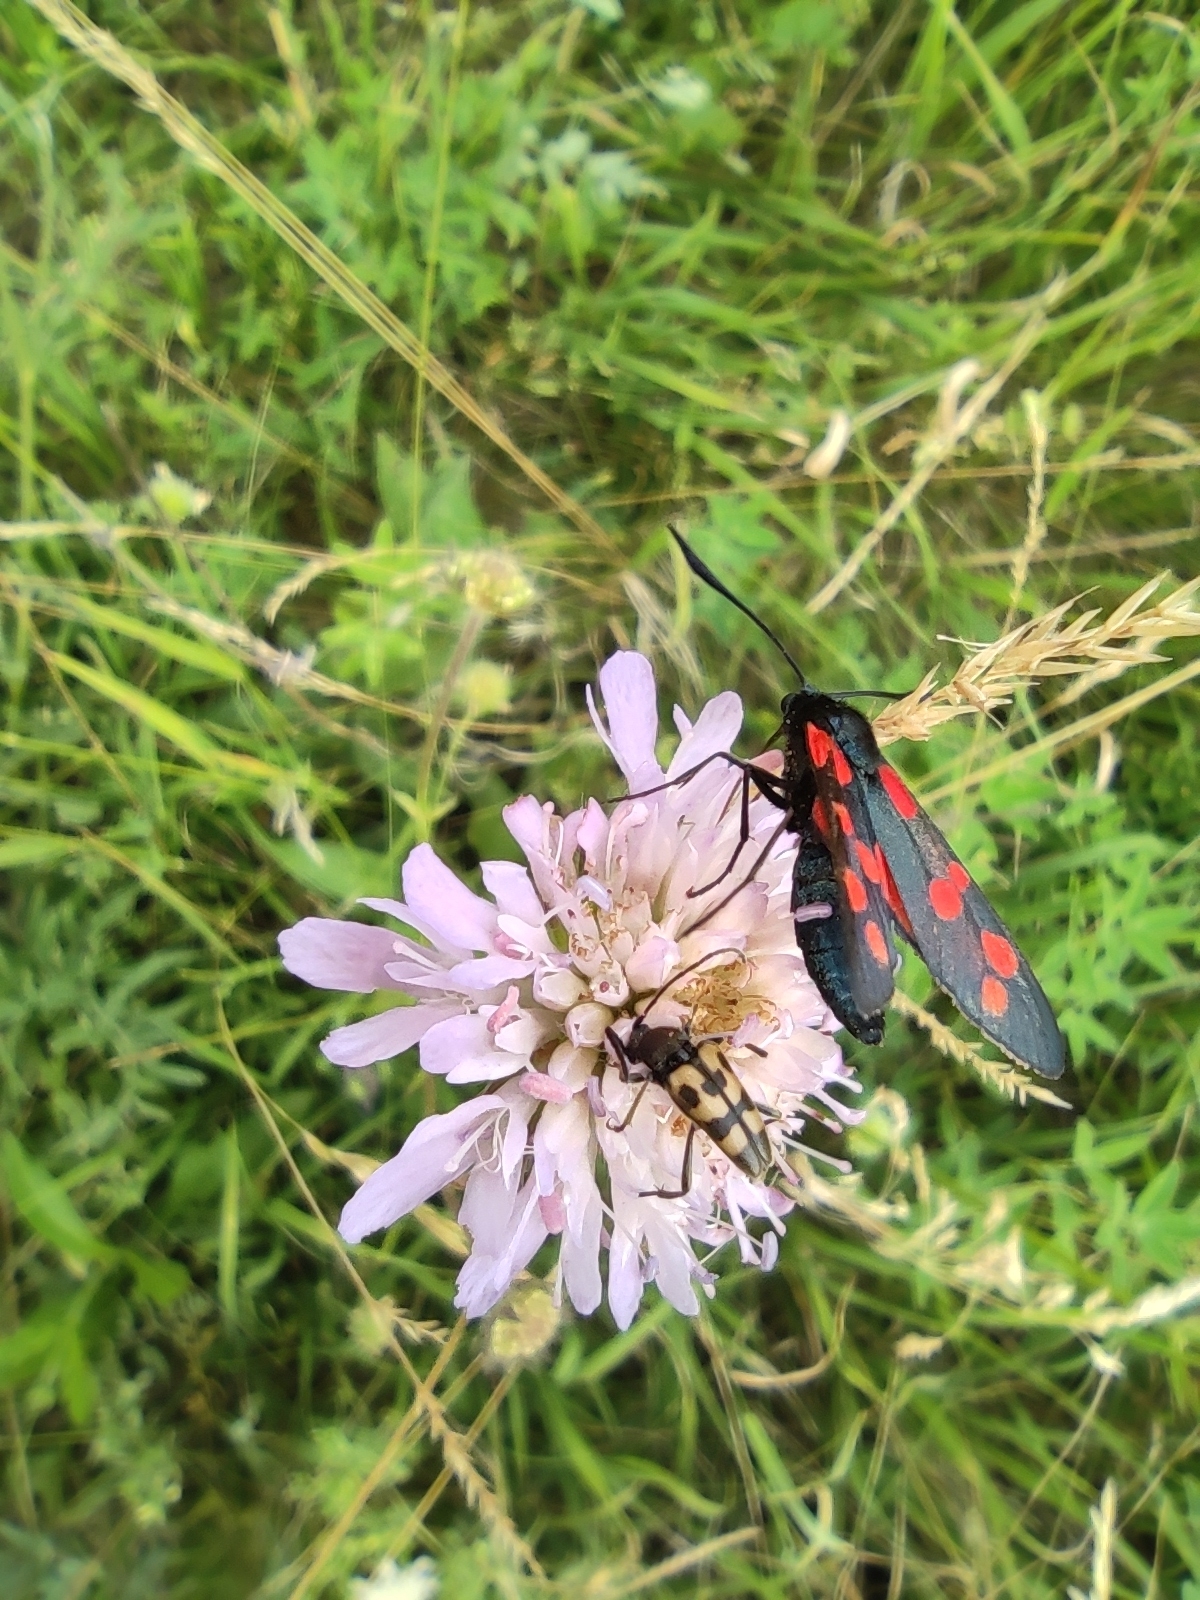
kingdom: Animalia
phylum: Arthropoda
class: Insecta
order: Lepidoptera
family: Zygaenidae
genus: Zygaena
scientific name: Zygaena filipendulae
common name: Six-spot burnet
